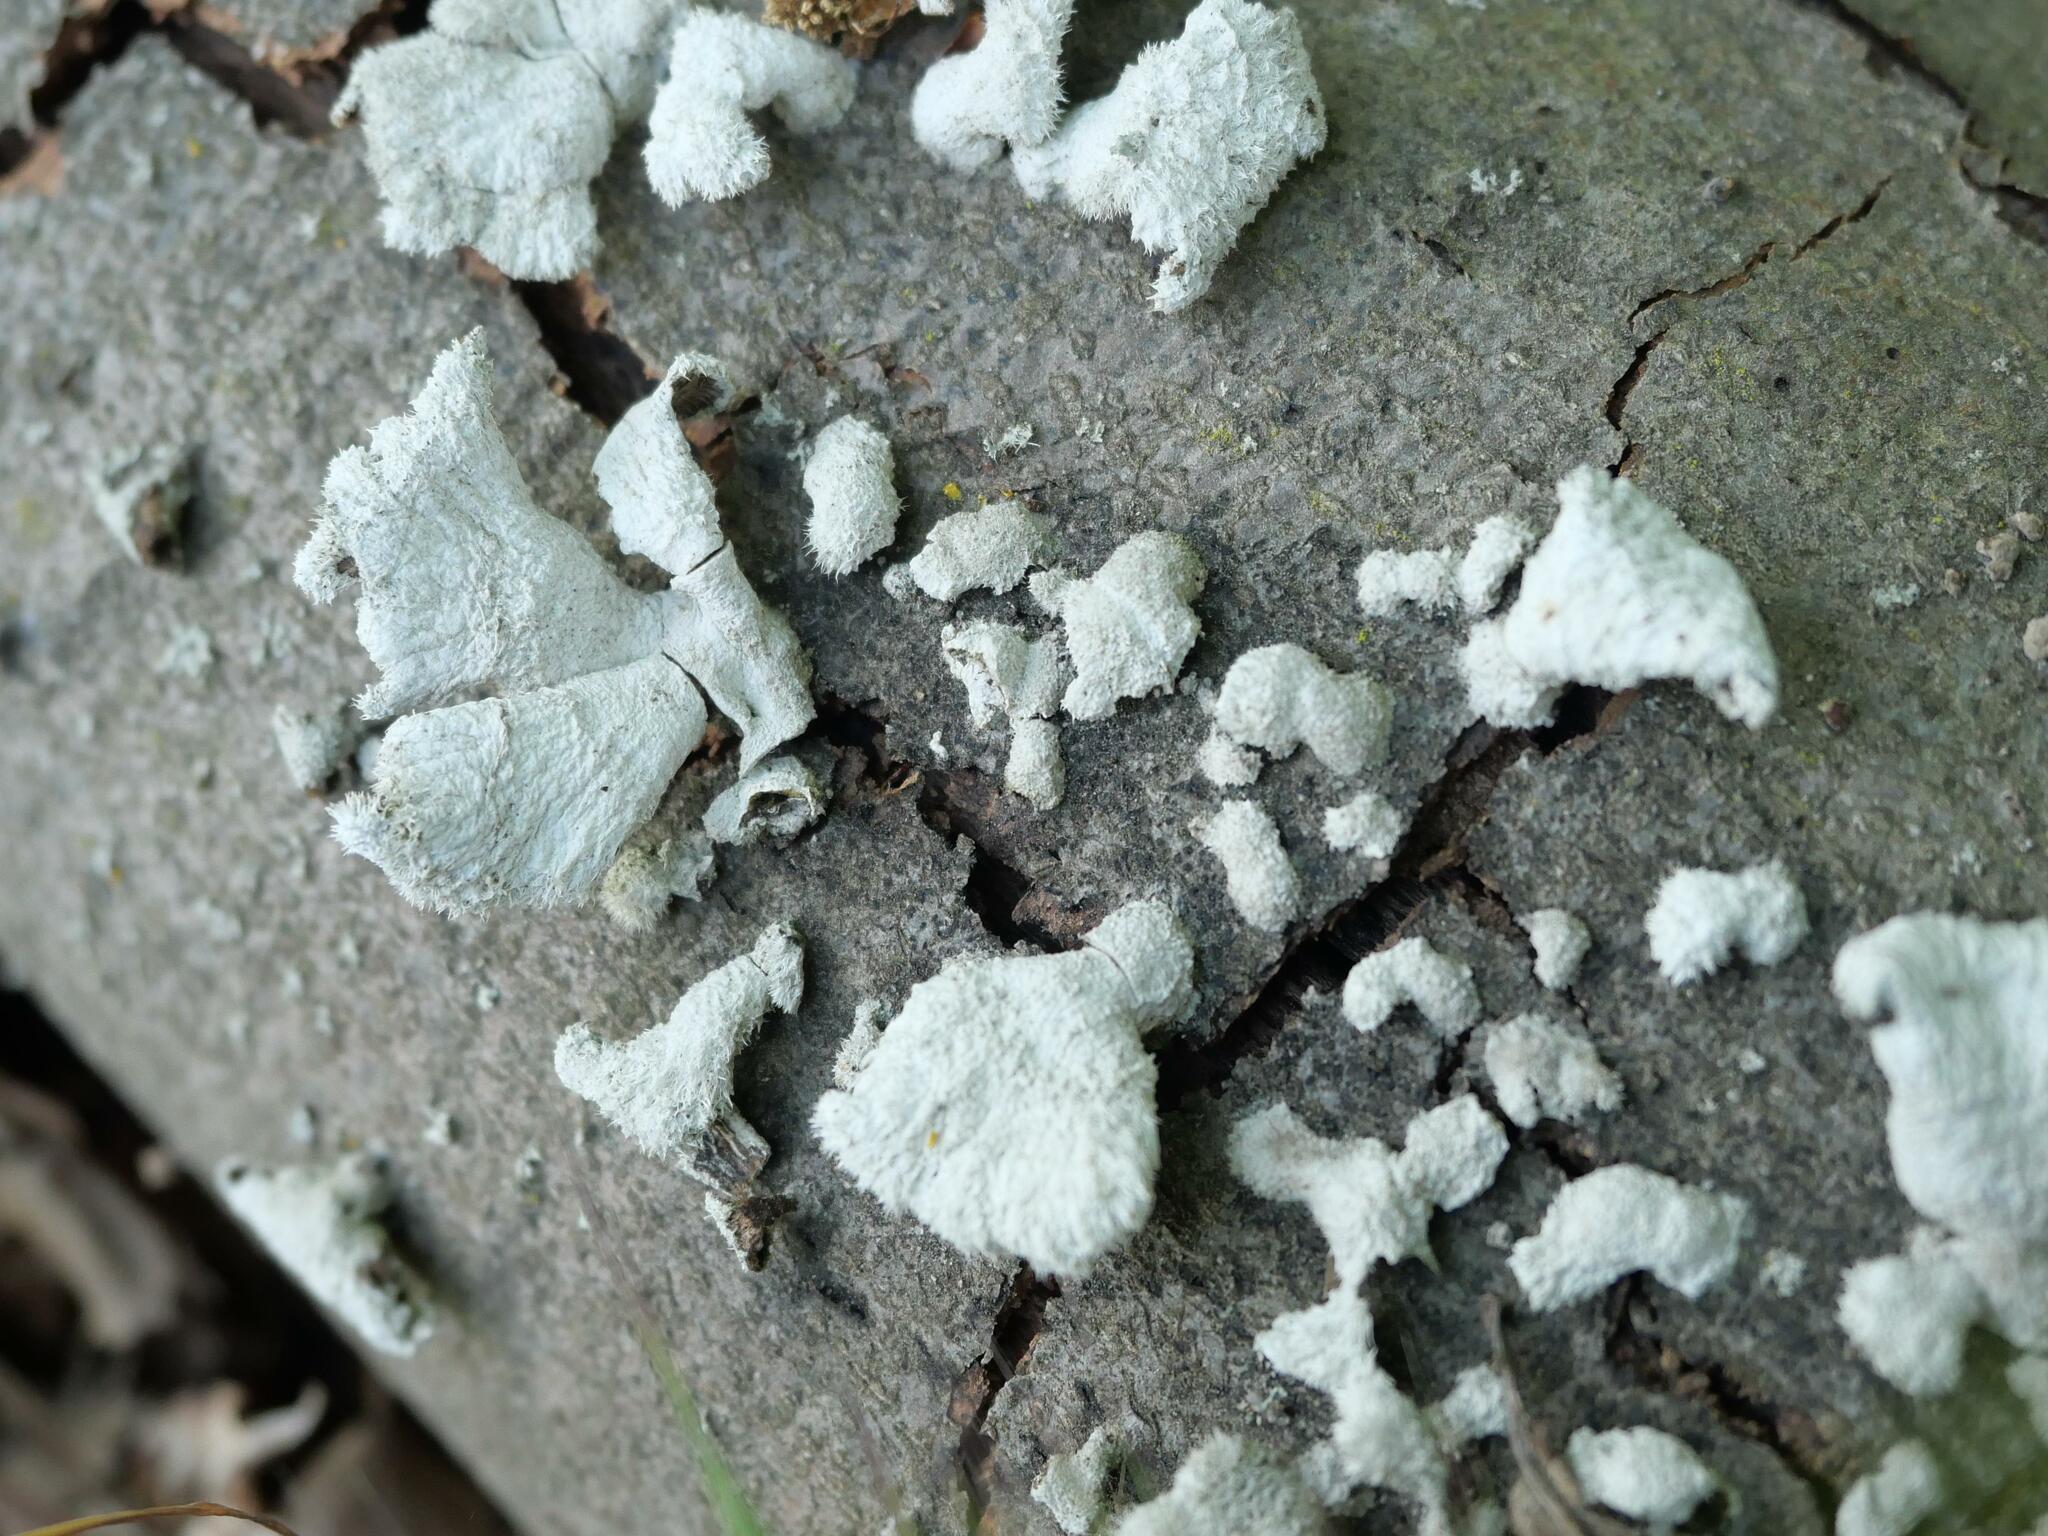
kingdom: Fungi
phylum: Basidiomycota
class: Agaricomycetes
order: Agaricales
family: Schizophyllaceae
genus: Schizophyllum
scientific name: Schizophyllum commune
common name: Common porecrust
